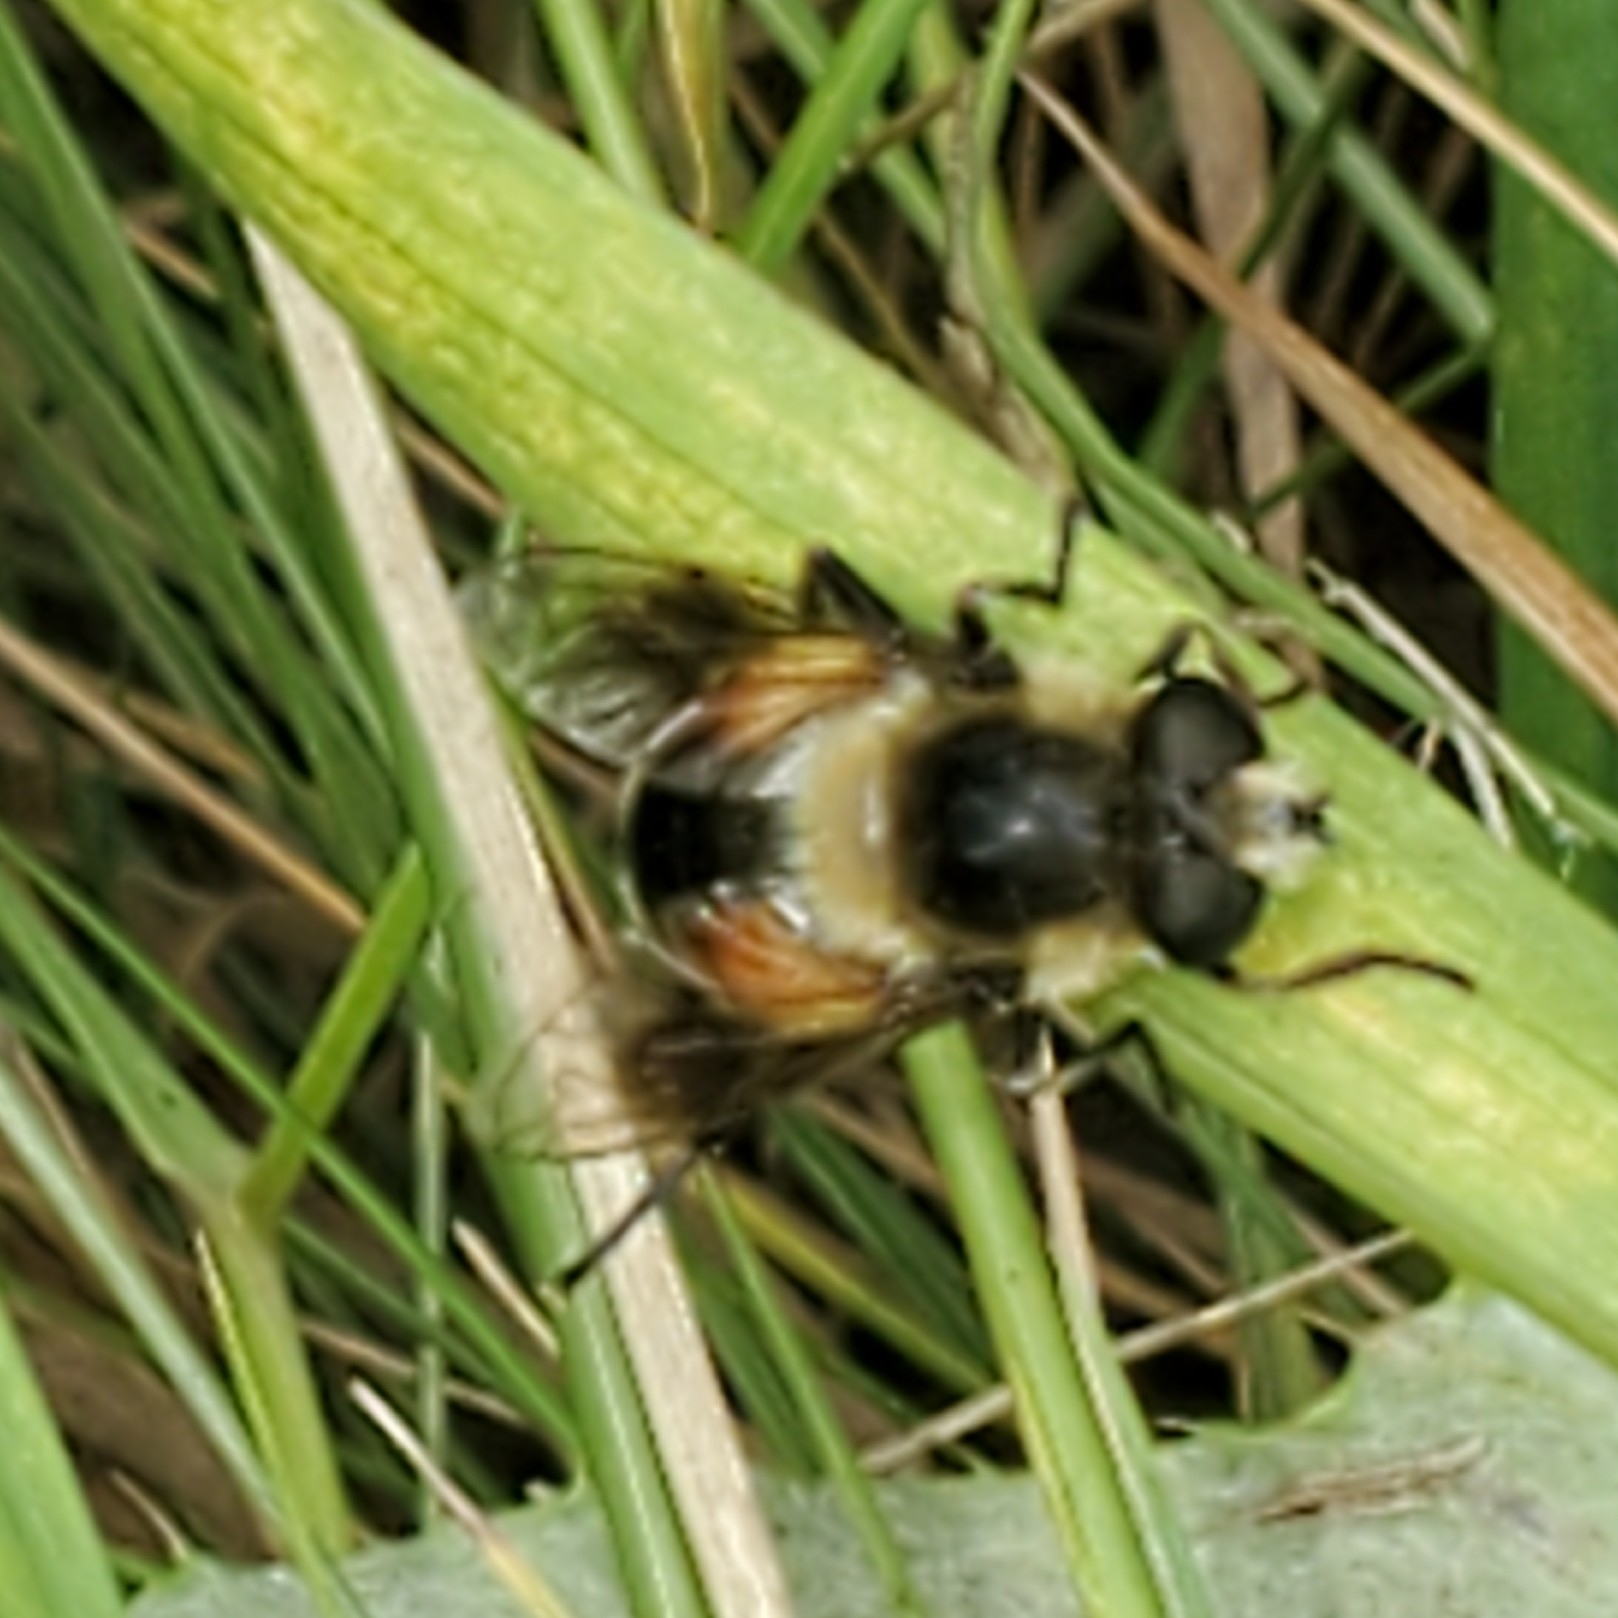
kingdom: Animalia
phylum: Arthropoda
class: Insecta
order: Diptera
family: Syrphidae
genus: Eristalis
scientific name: Eristalis anthophorina
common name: Orange-spotted drone fly
